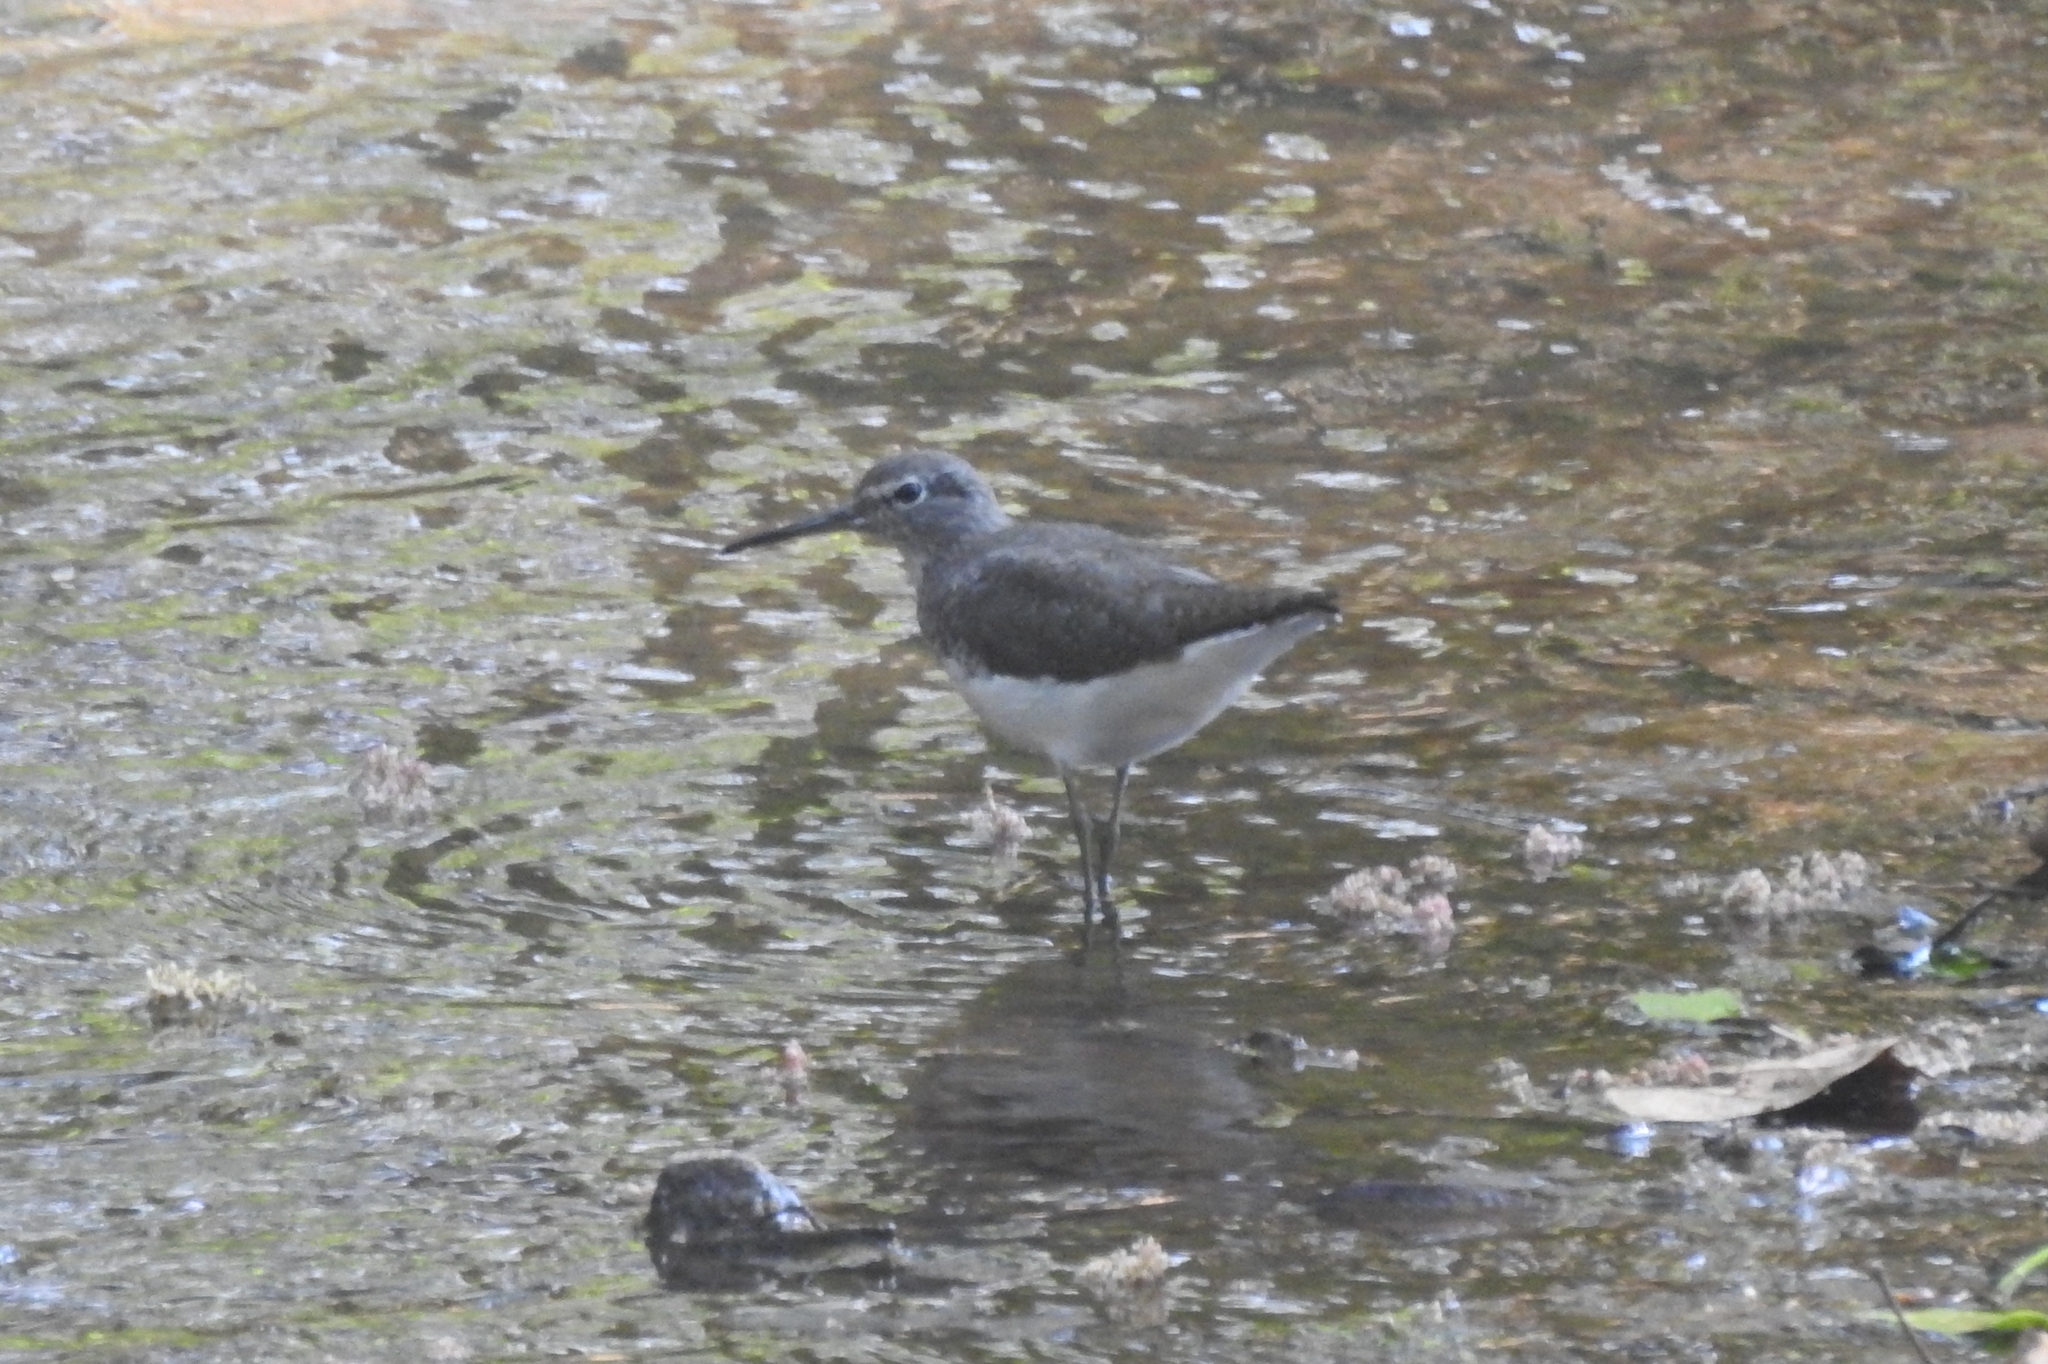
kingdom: Animalia
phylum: Chordata
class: Aves
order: Charadriiformes
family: Scolopacidae
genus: Tringa
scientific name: Tringa ochropus
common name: Green sandpiper
